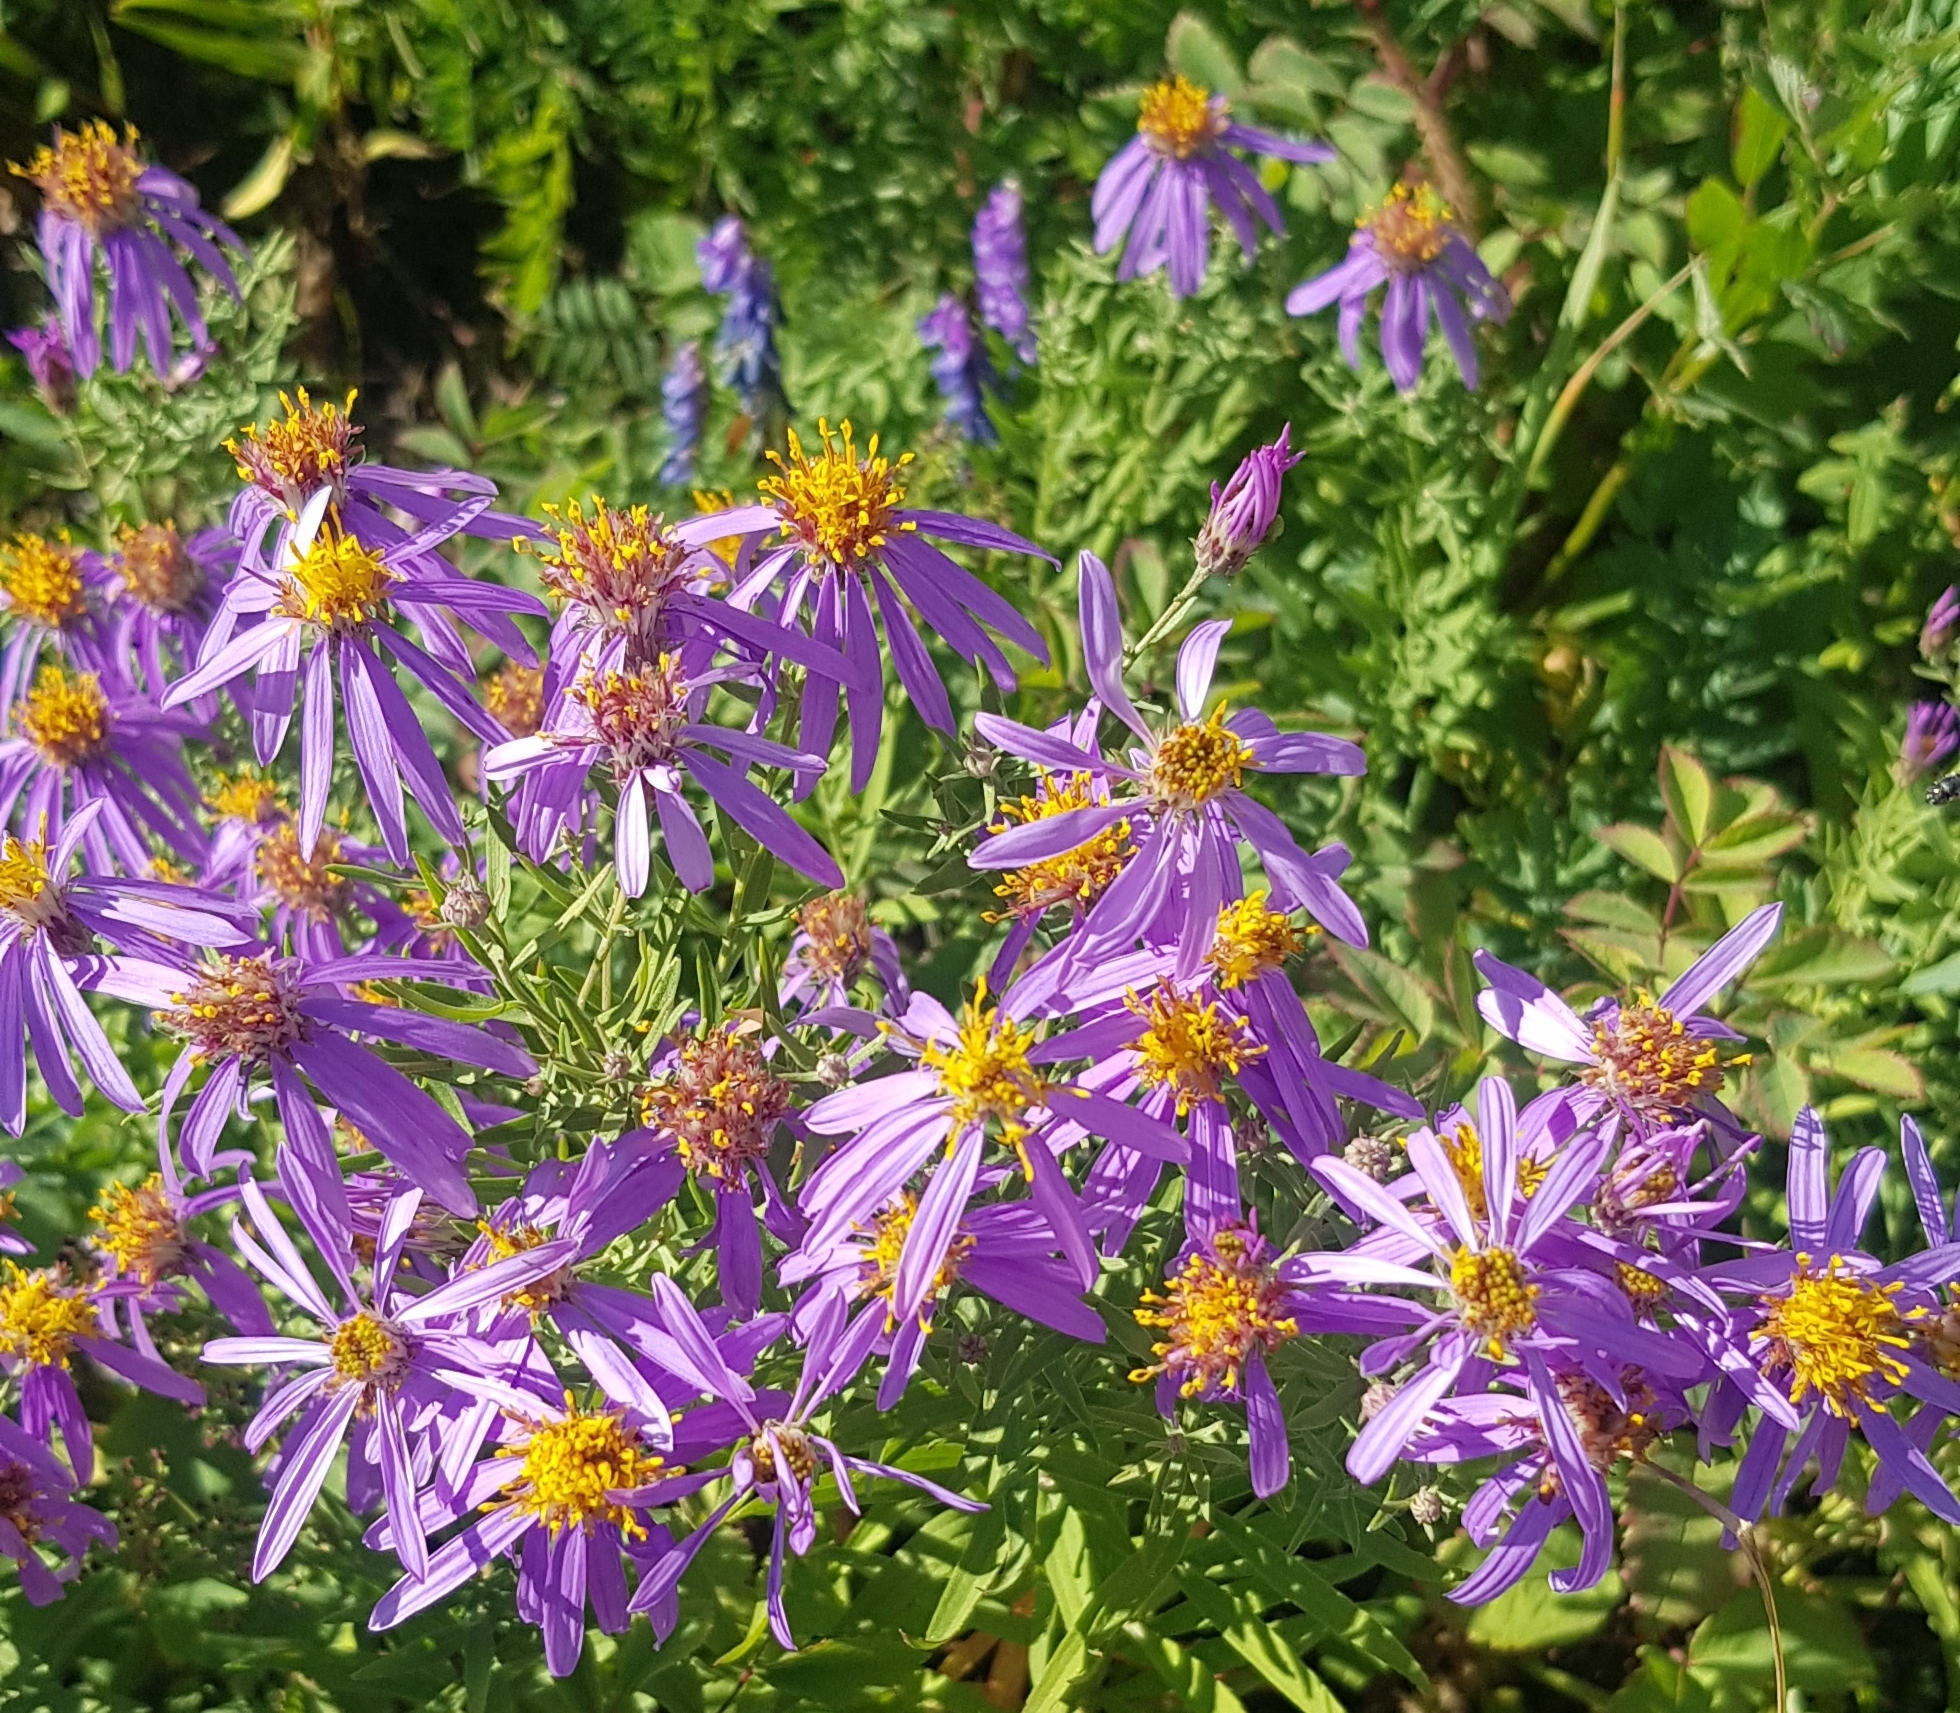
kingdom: Plantae
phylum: Tracheophyta
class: Magnoliopsida
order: Asterales
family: Asteraceae
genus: Galatella
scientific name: Galatella dahurica
